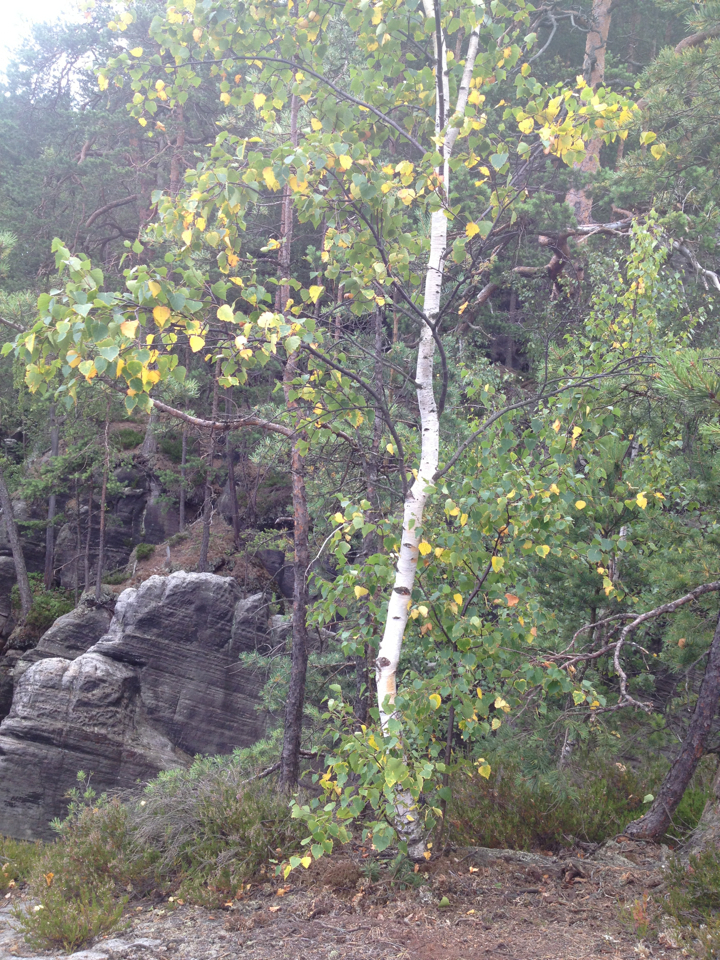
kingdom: Plantae
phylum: Tracheophyta
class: Magnoliopsida
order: Fagales
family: Betulaceae
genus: Betula
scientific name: Betula pendula
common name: Silver birch
